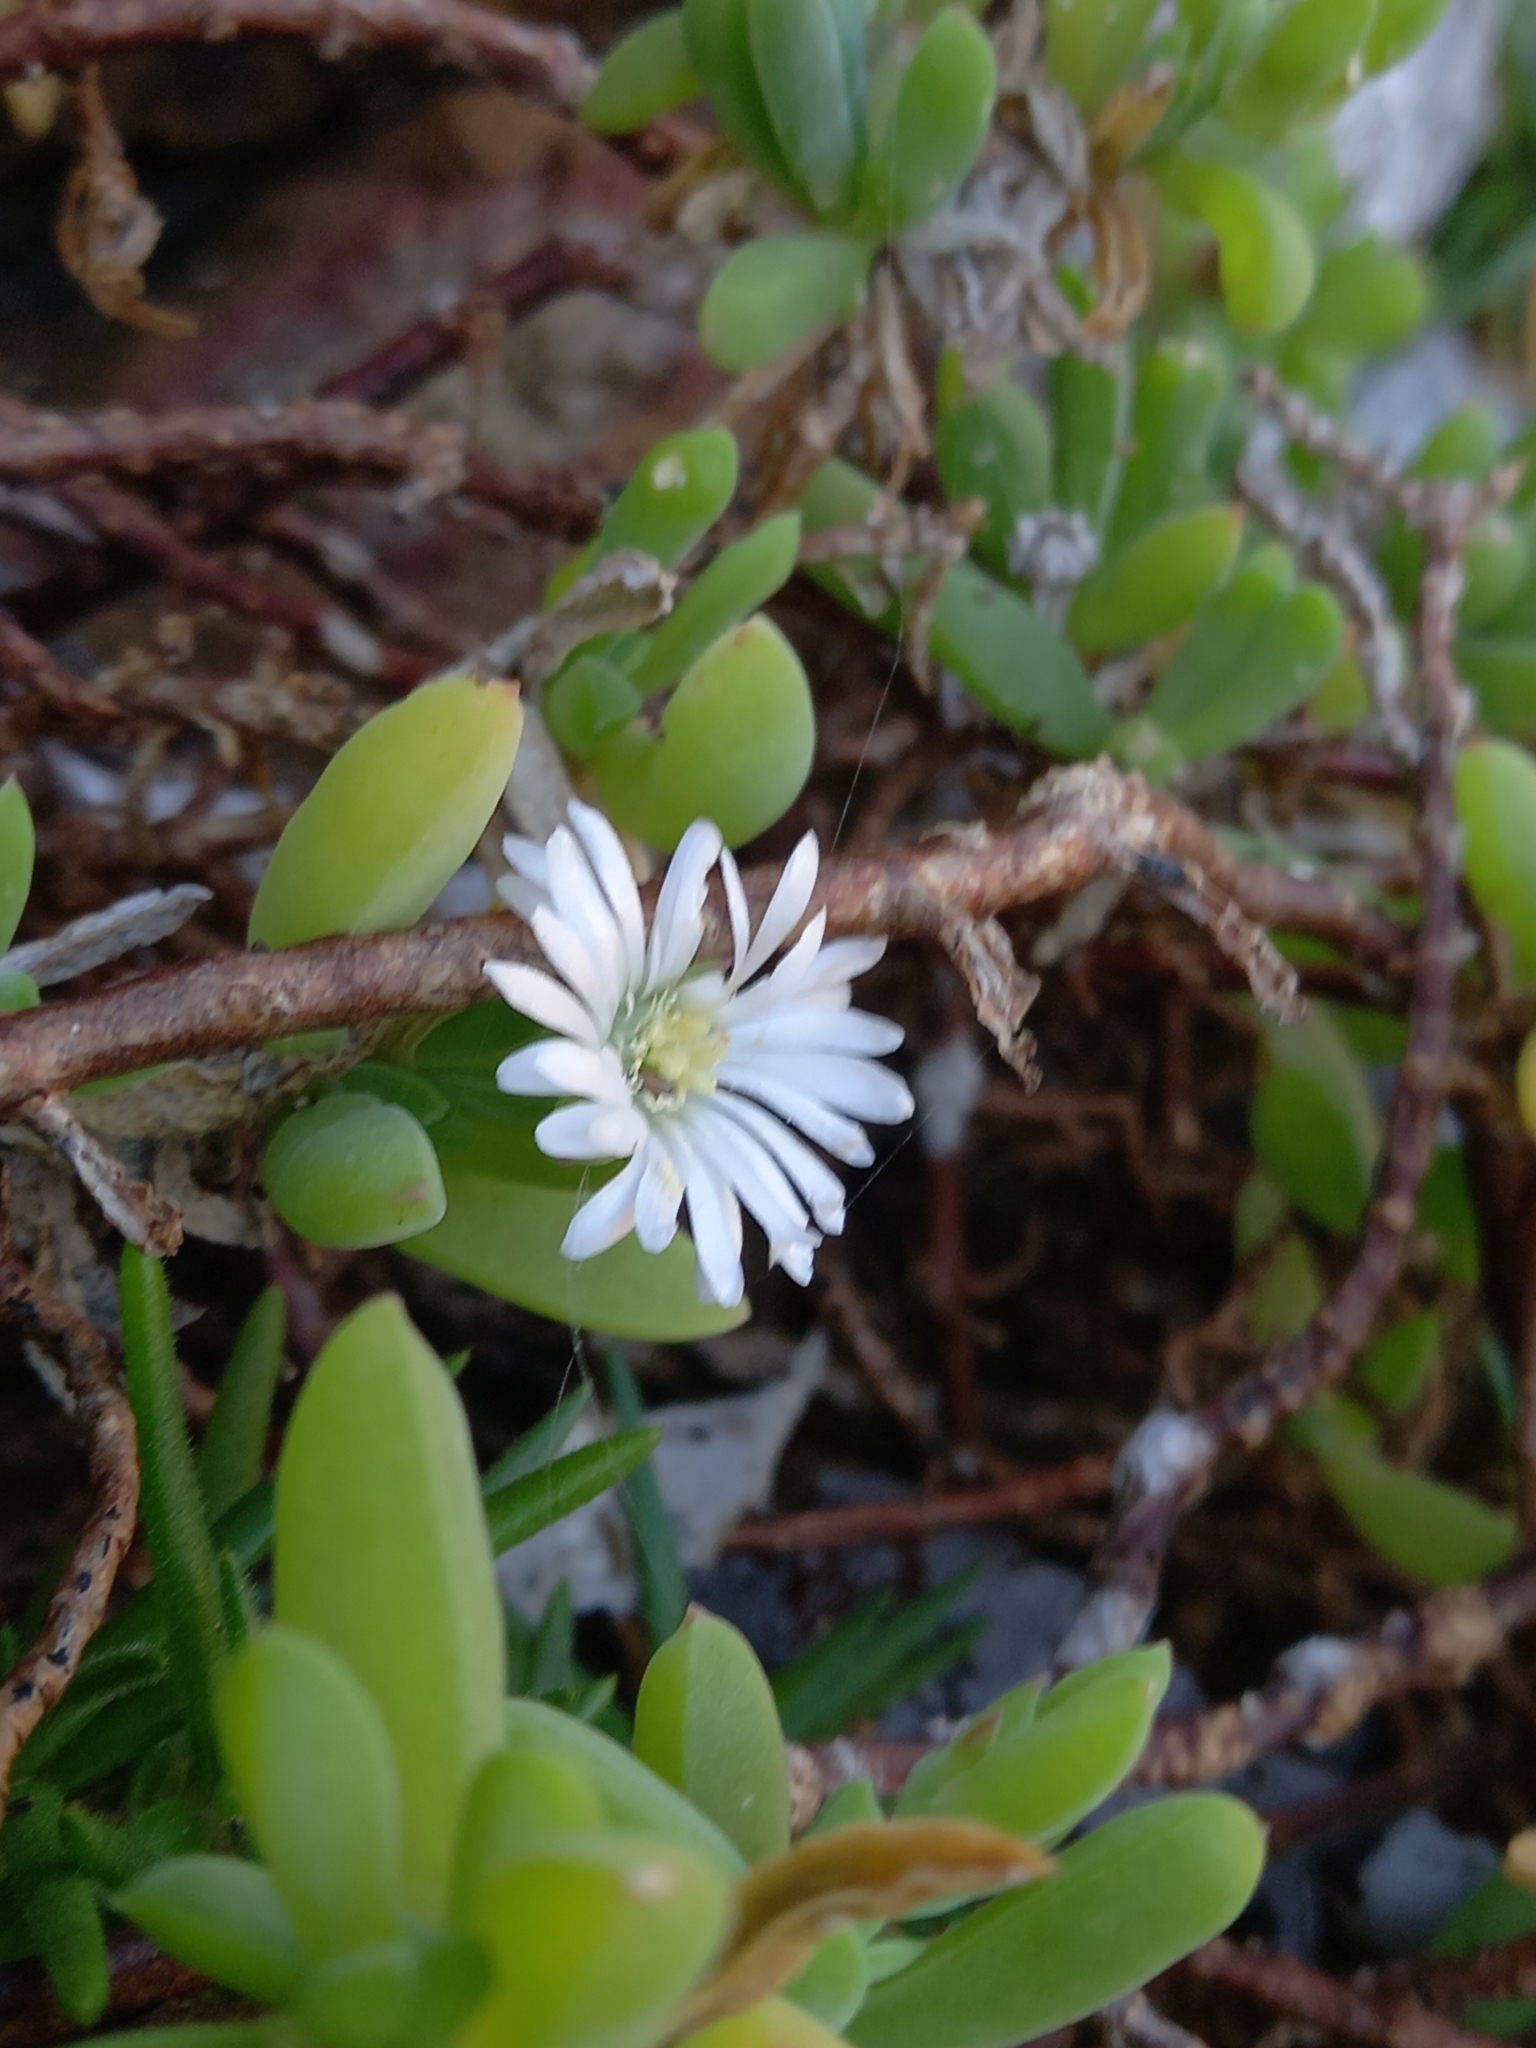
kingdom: Plantae
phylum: Tracheophyta
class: Magnoliopsida
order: Caryophyllales
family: Aizoaceae
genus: Delosperma
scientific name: Delosperma patersoniae
